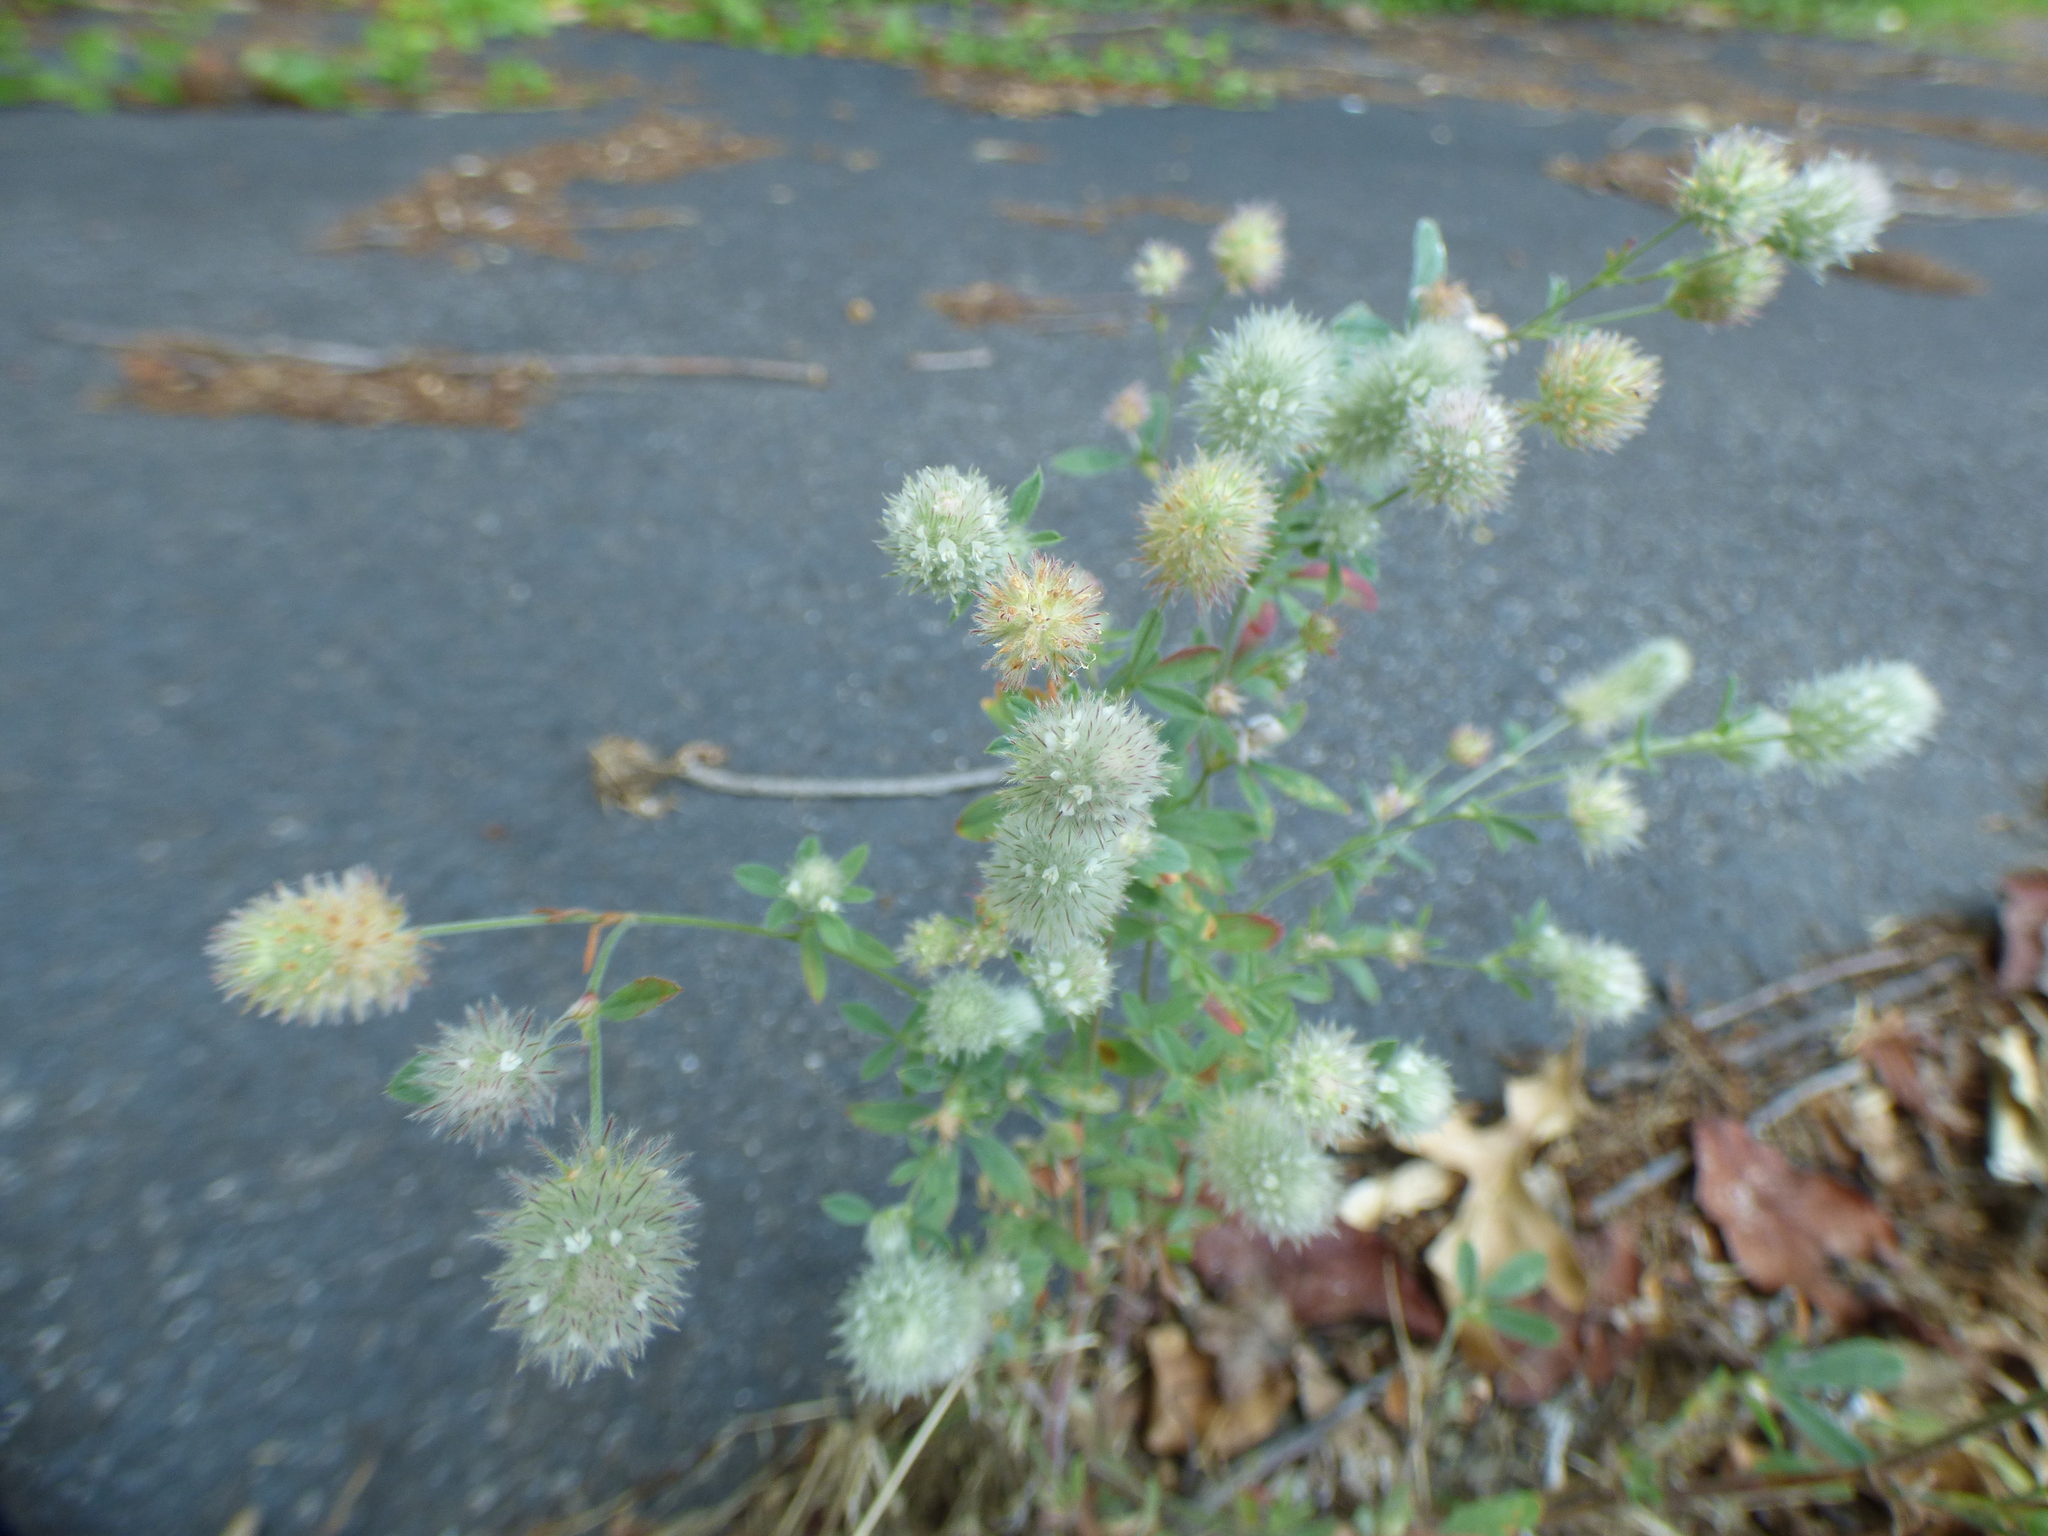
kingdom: Plantae
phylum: Tracheophyta
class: Magnoliopsida
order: Fabales
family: Fabaceae
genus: Trifolium
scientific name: Trifolium arvense
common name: Hare's-foot clover
